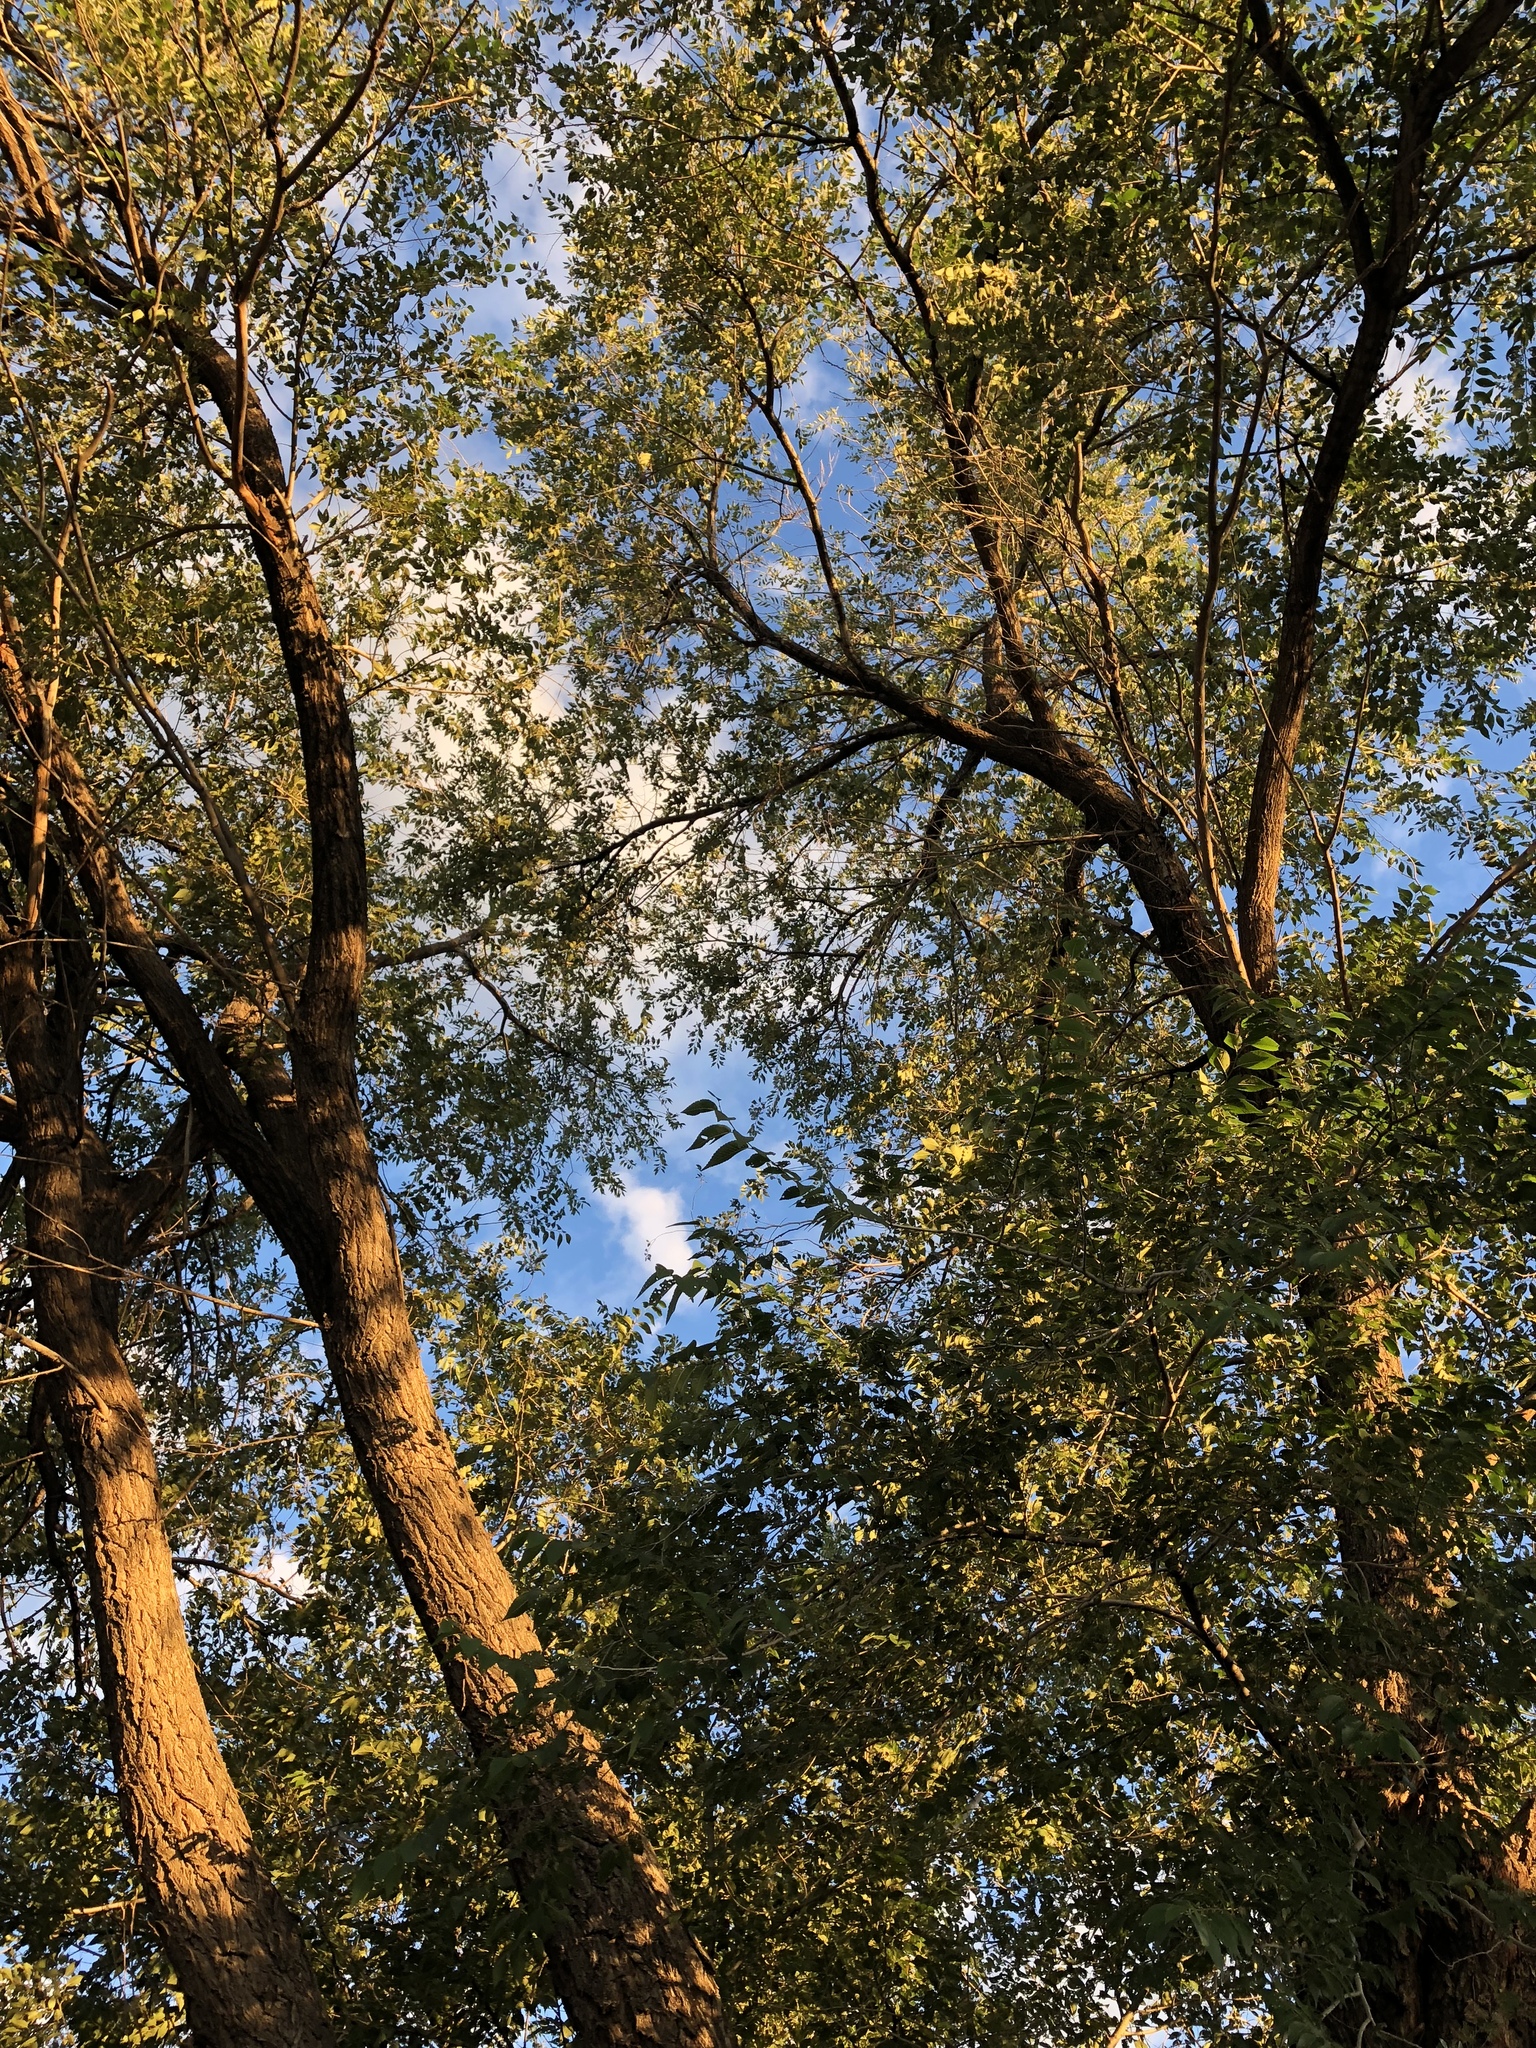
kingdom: Plantae
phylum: Tracheophyta
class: Magnoliopsida
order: Rosales
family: Ulmaceae
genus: Ulmus
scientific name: Ulmus pumila
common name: Siberian elm
